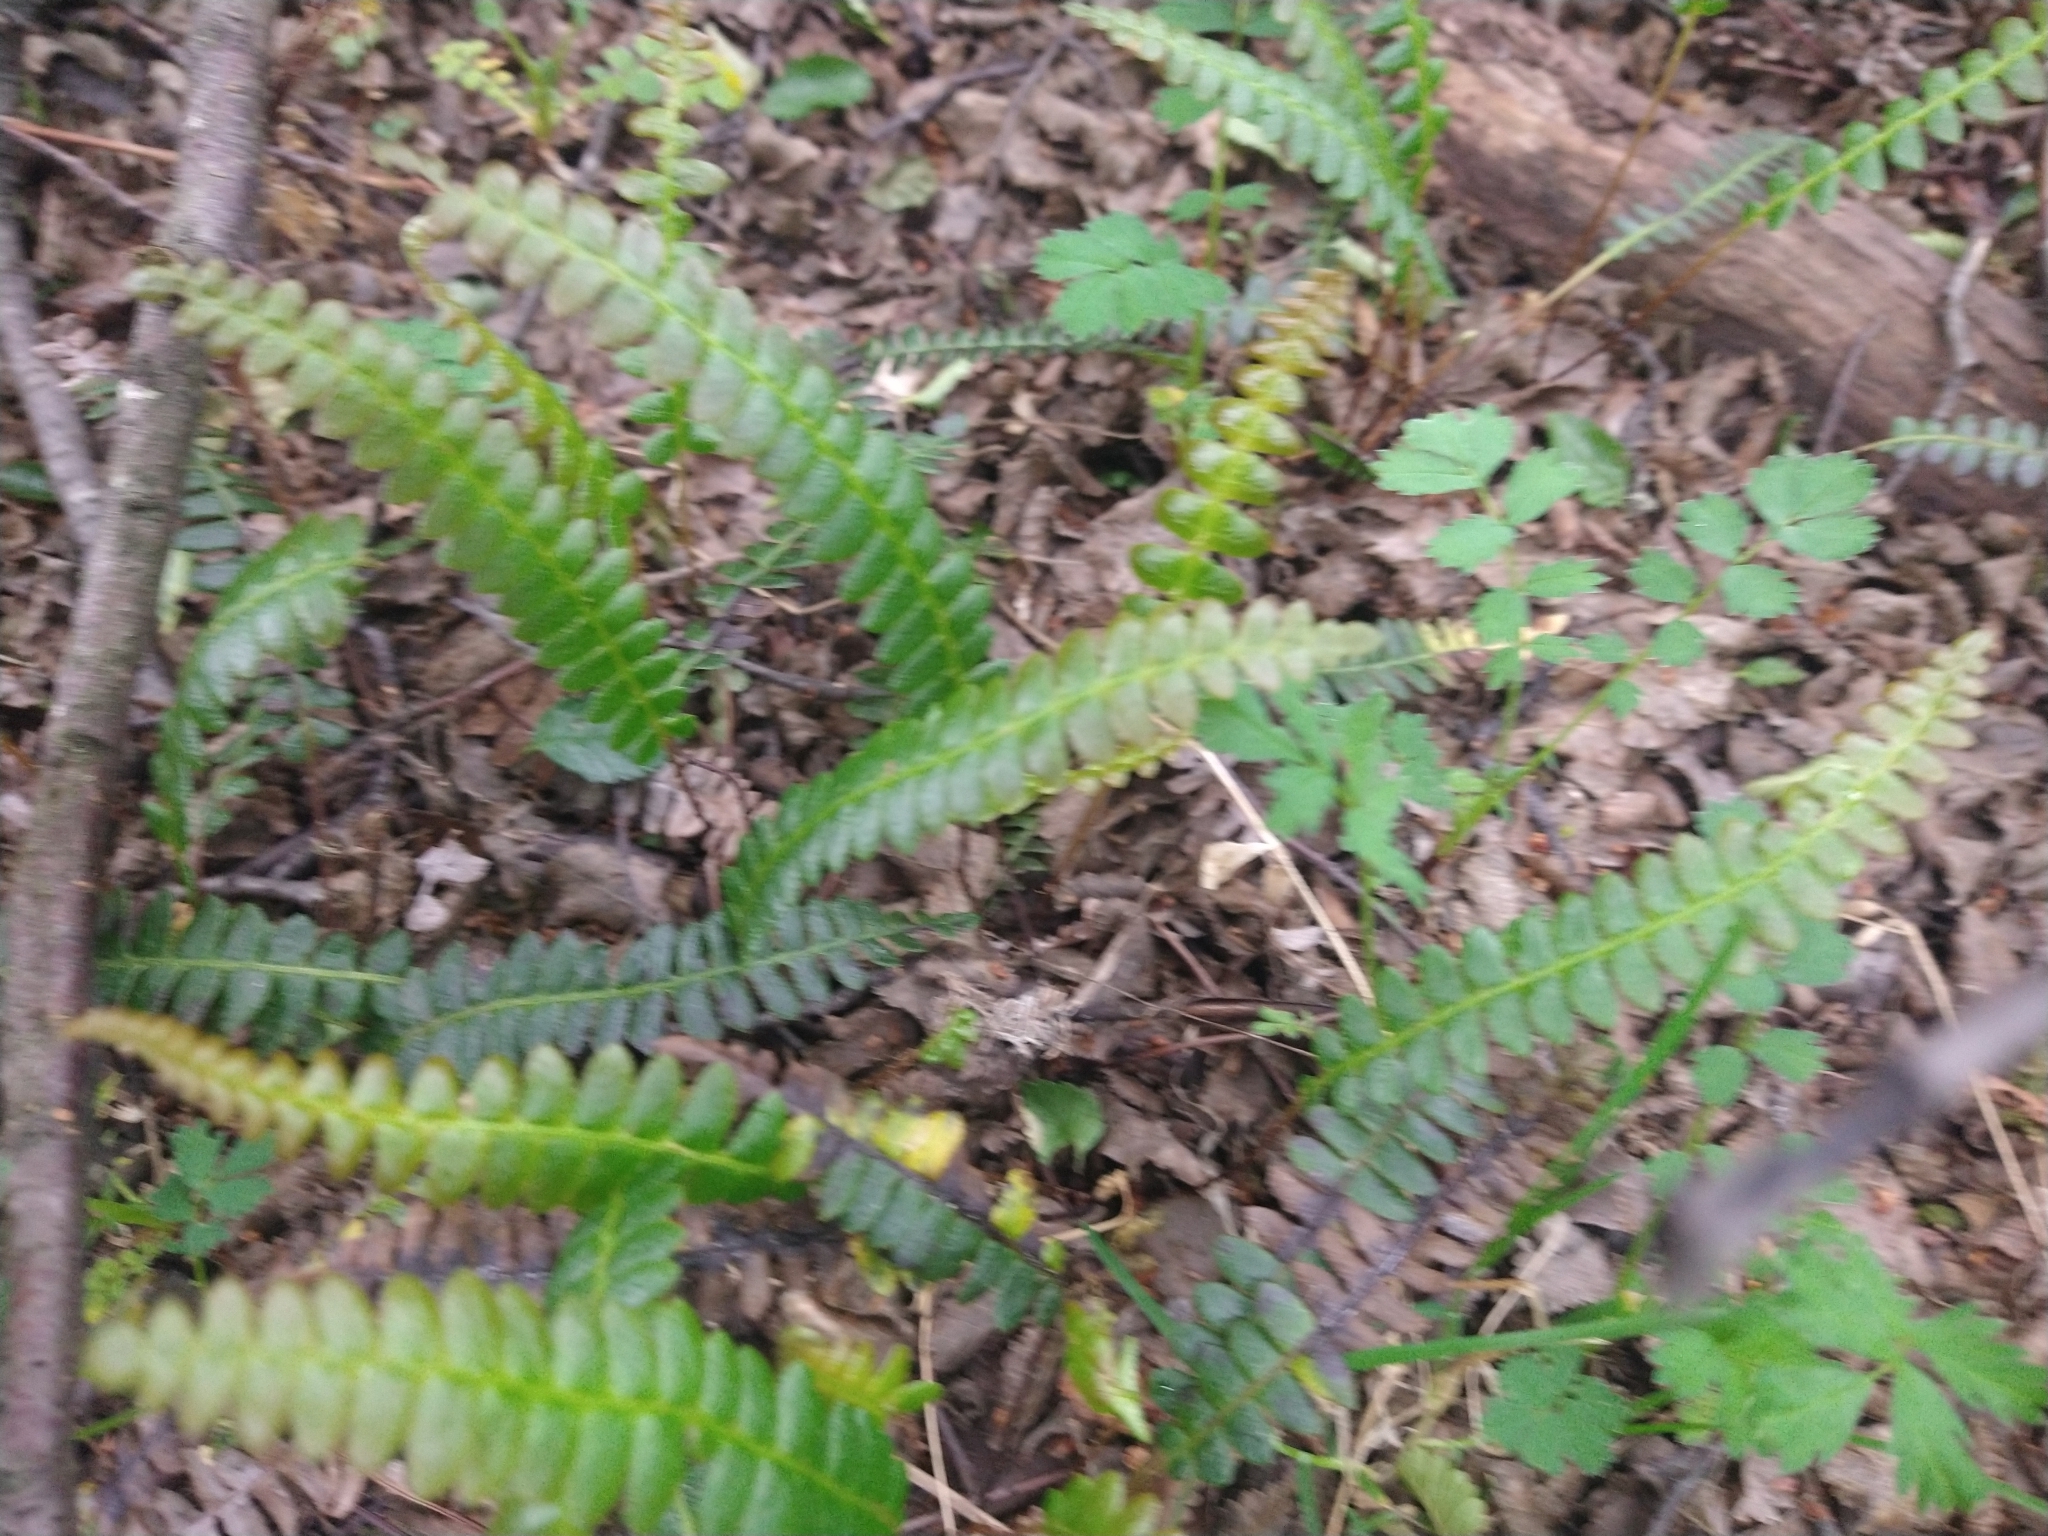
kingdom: Plantae
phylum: Tracheophyta
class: Polypodiopsida
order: Polypodiales
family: Blechnaceae
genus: Austroblechnum
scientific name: Austroblechnum penna-marina
